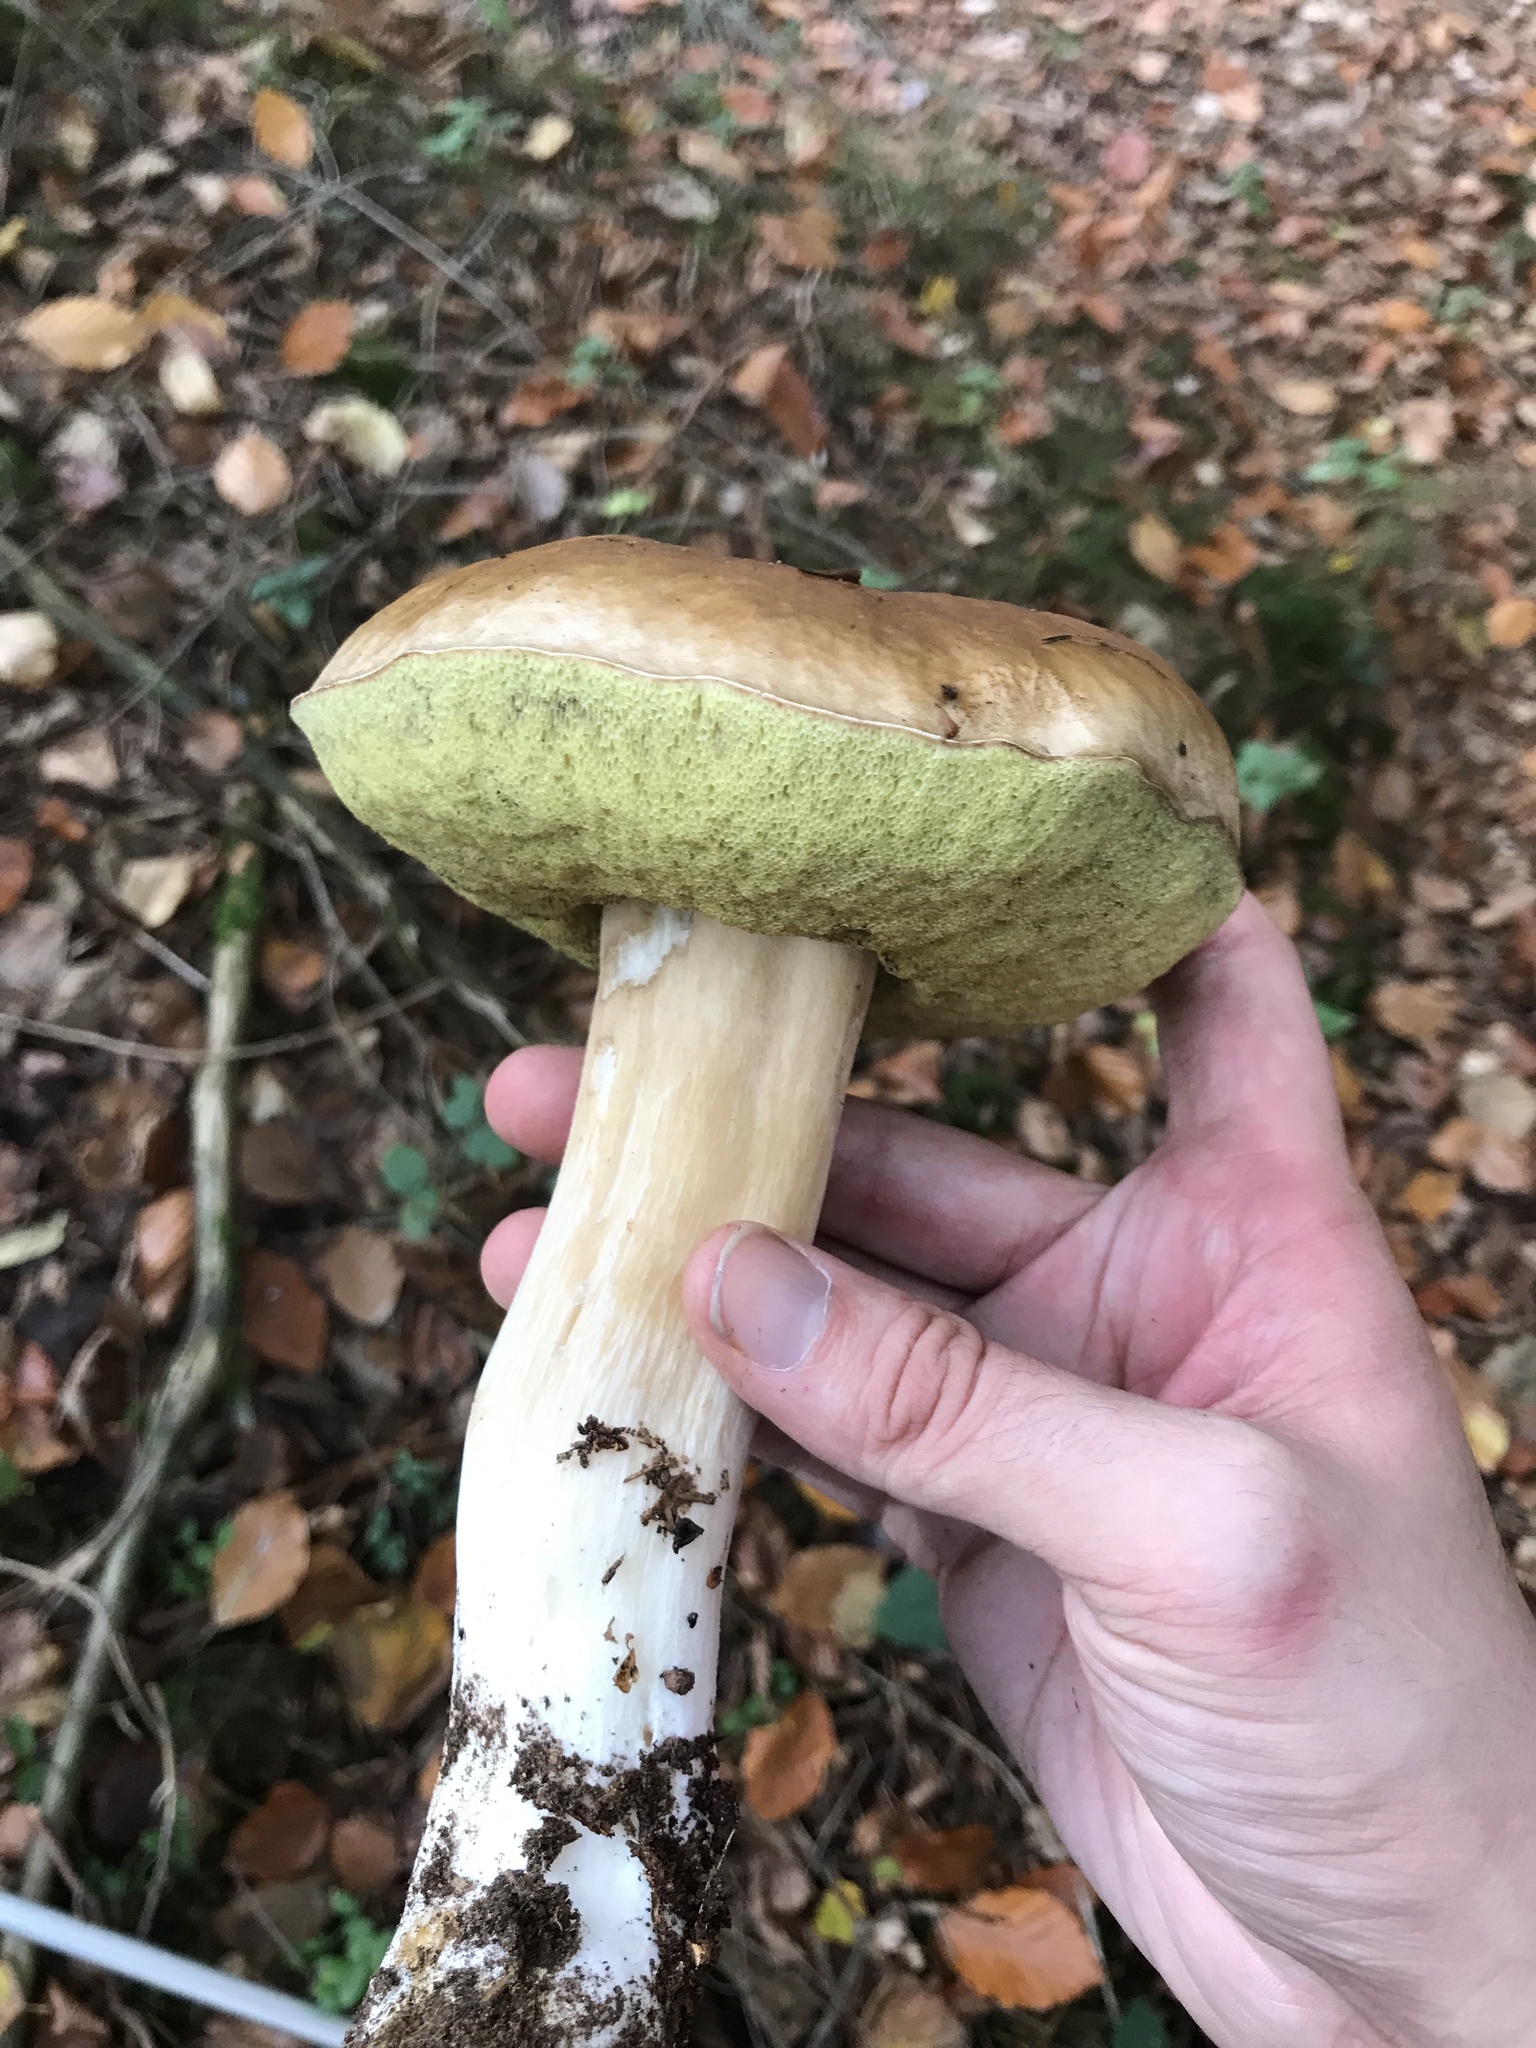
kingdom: Fungi
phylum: Basidiomycota
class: Agaricomycetes
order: Boletales
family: Boletaceae
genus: Boletus
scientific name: Boletus edulis
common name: Cep
